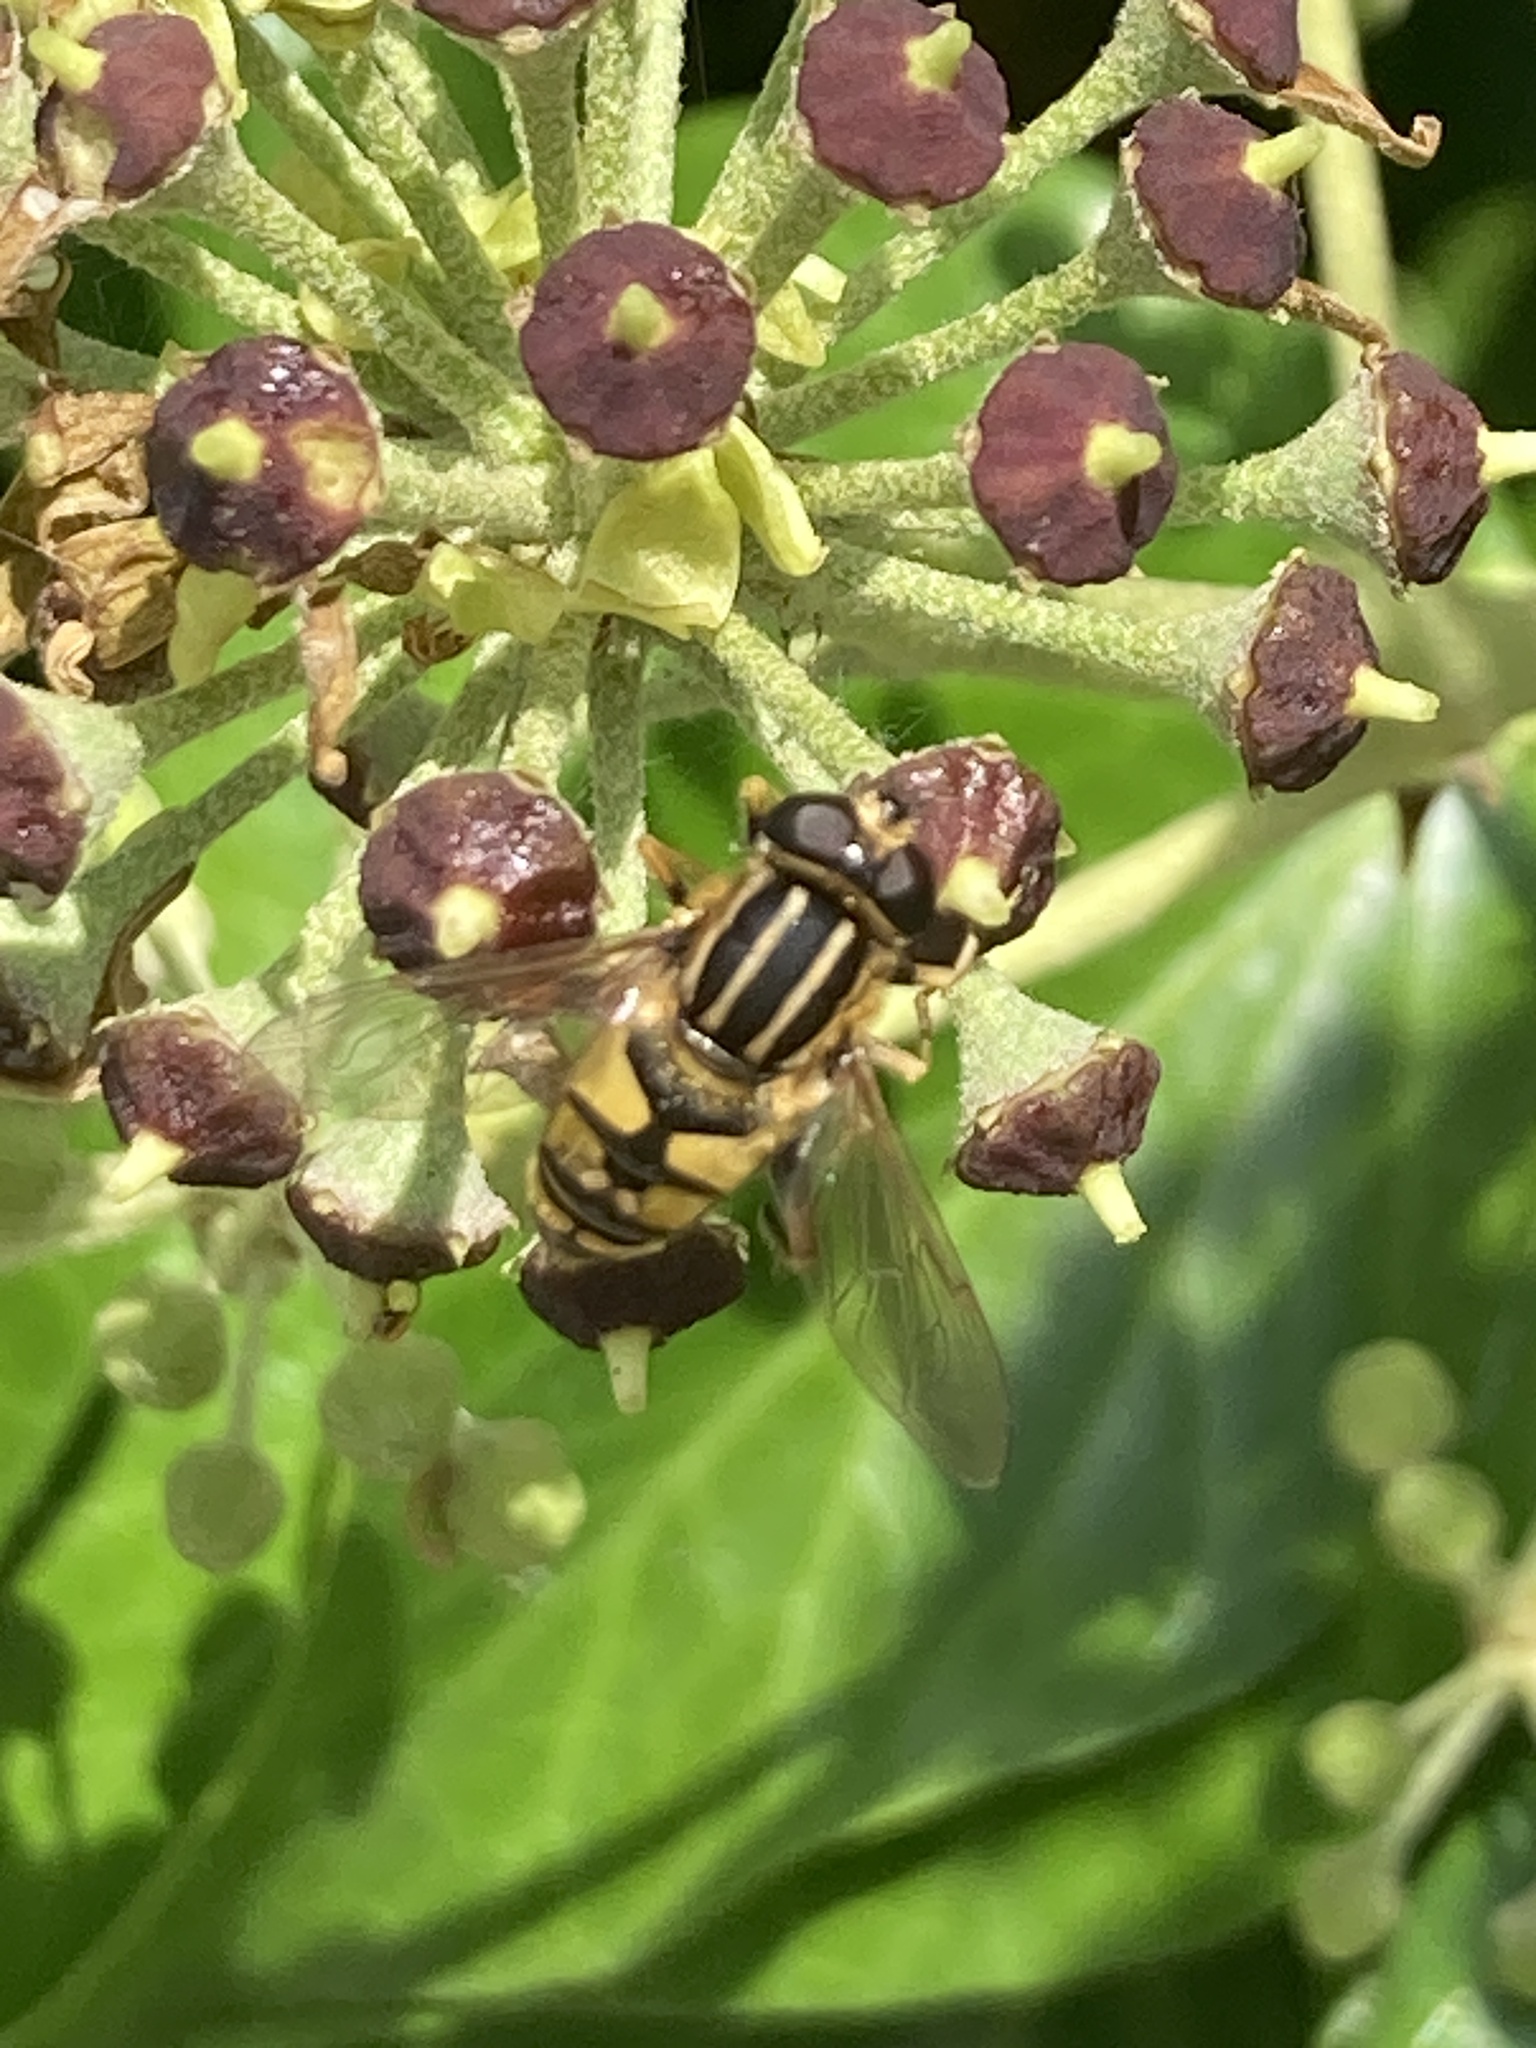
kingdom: Animalia
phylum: Arthropoda
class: Insecta
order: Diptera
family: Syrphidae
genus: Helophilus
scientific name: Helophilus pendulus
